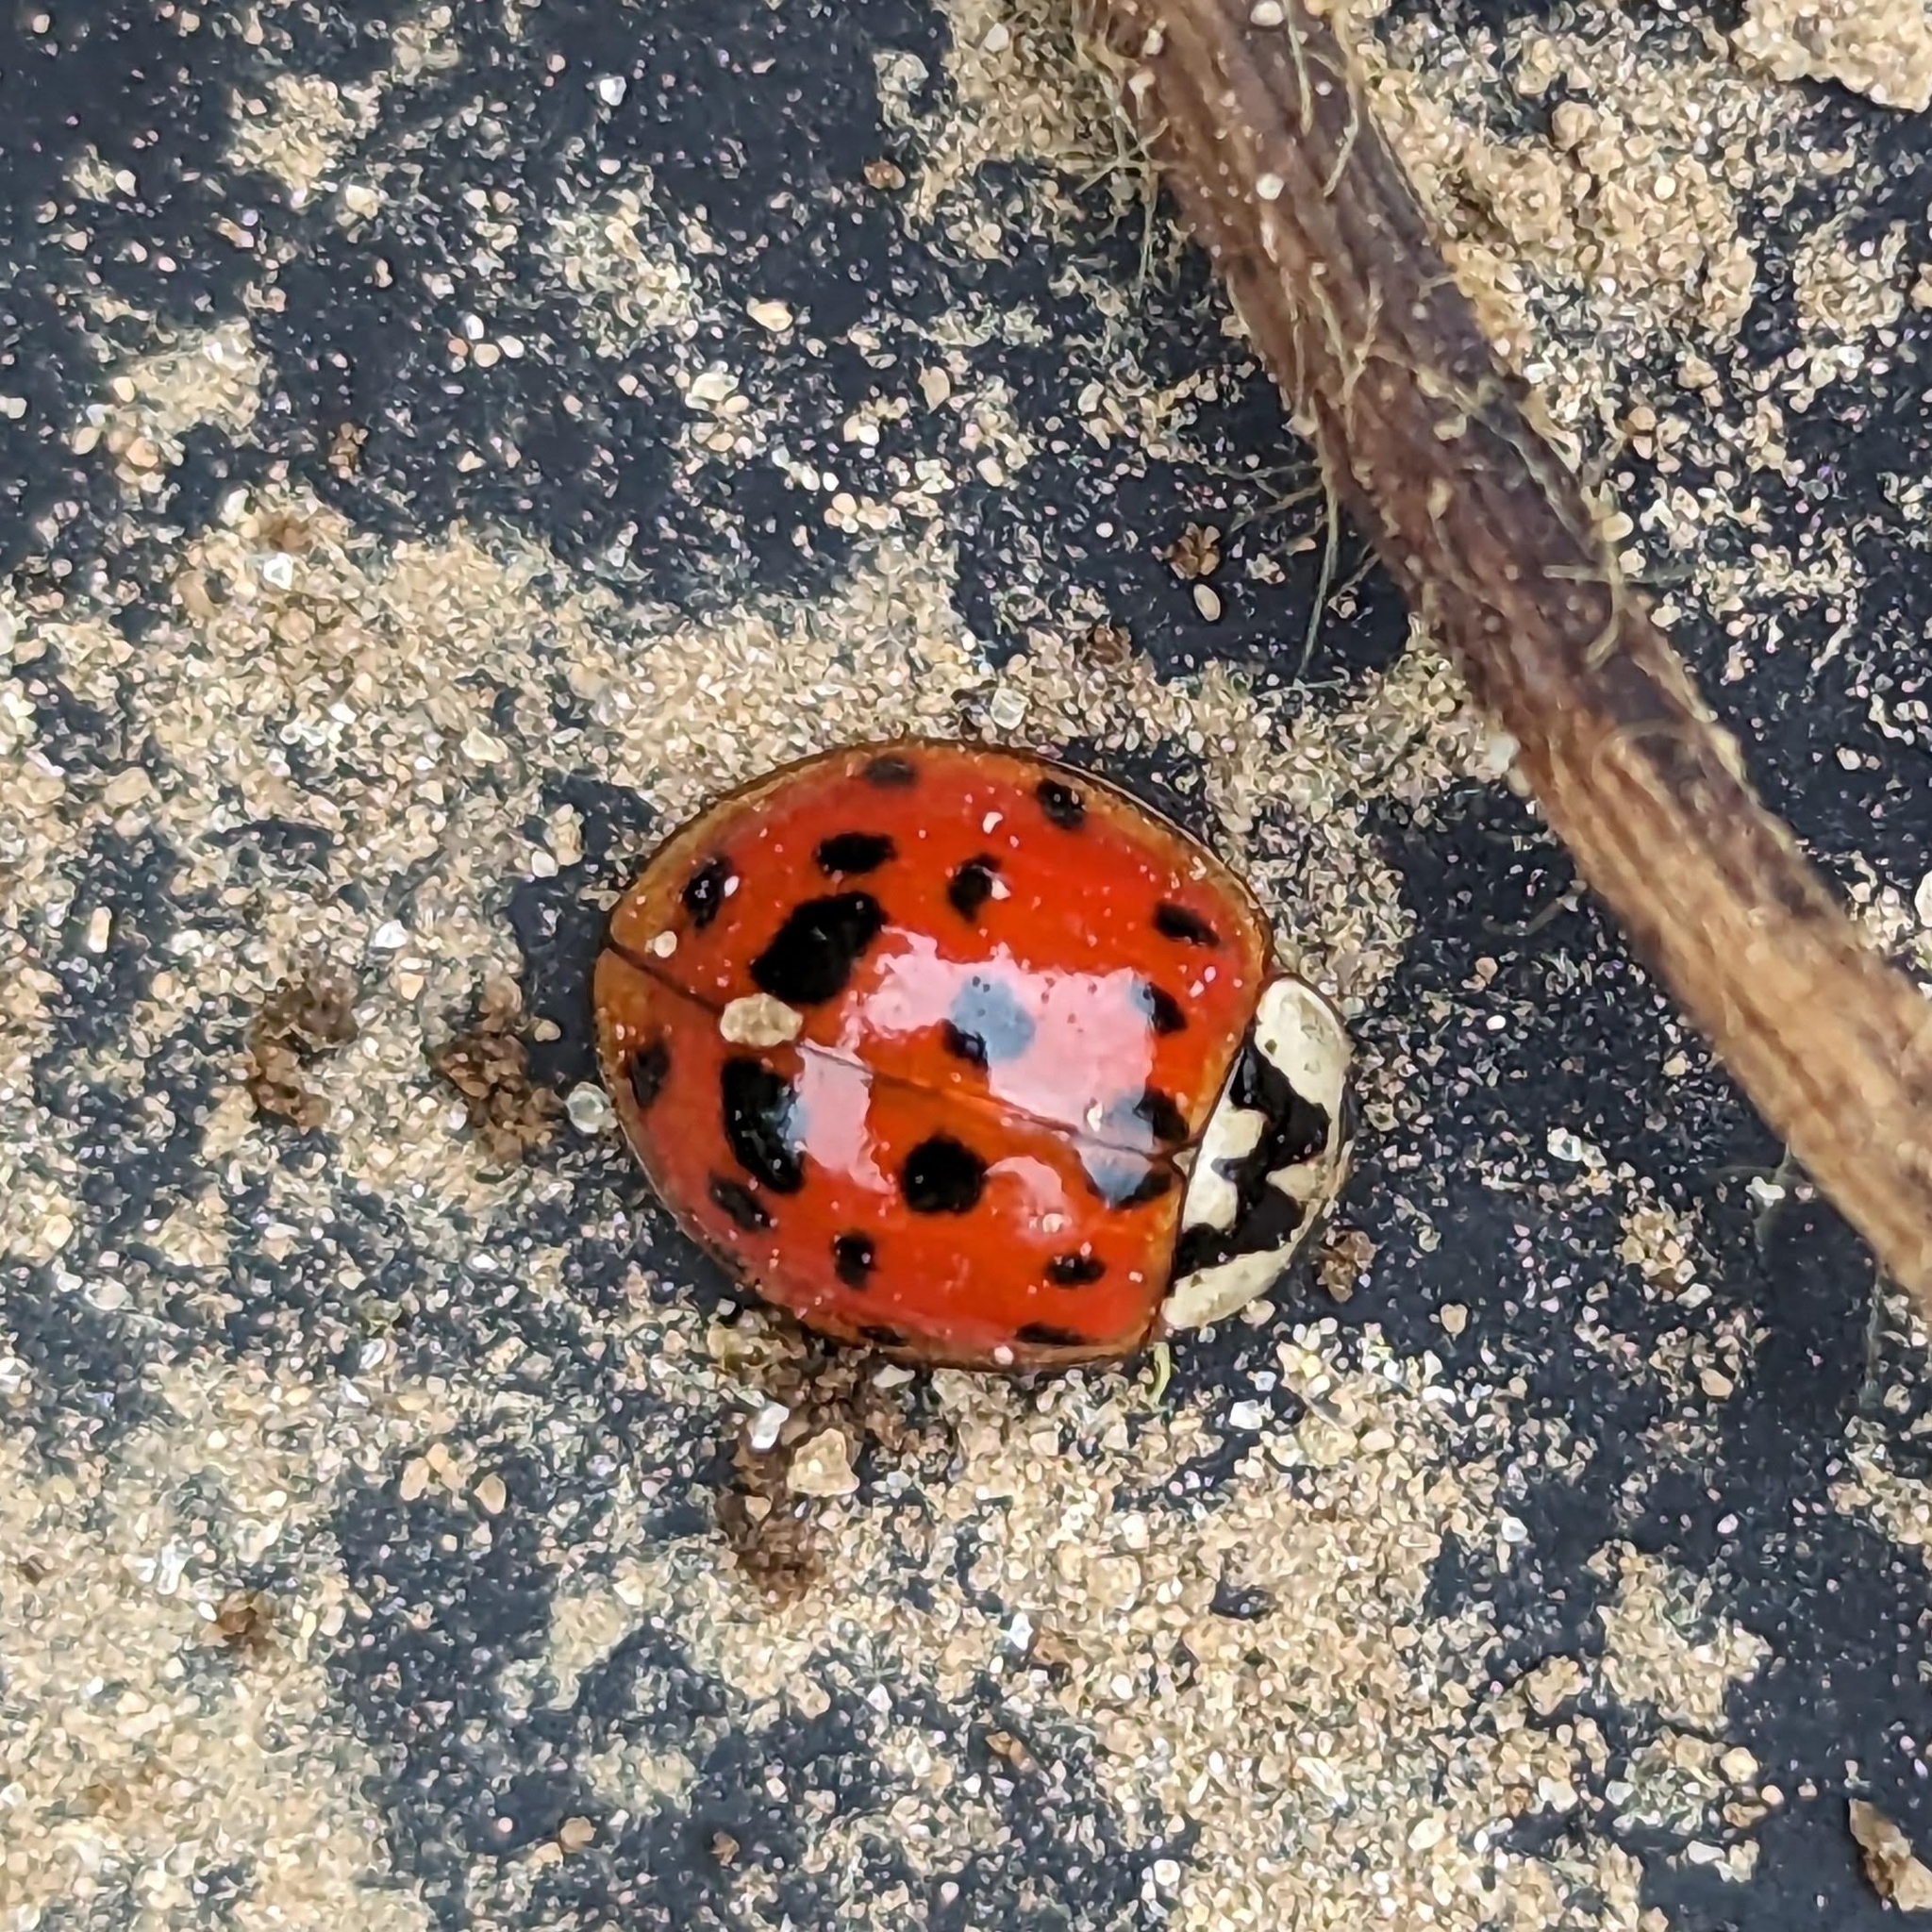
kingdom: Animalia
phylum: Arthropoda
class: Insecta
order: Coleoptera
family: Coccinellidae
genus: Harmonia
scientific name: Harmonia axyridis
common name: Harlequin ladybird
